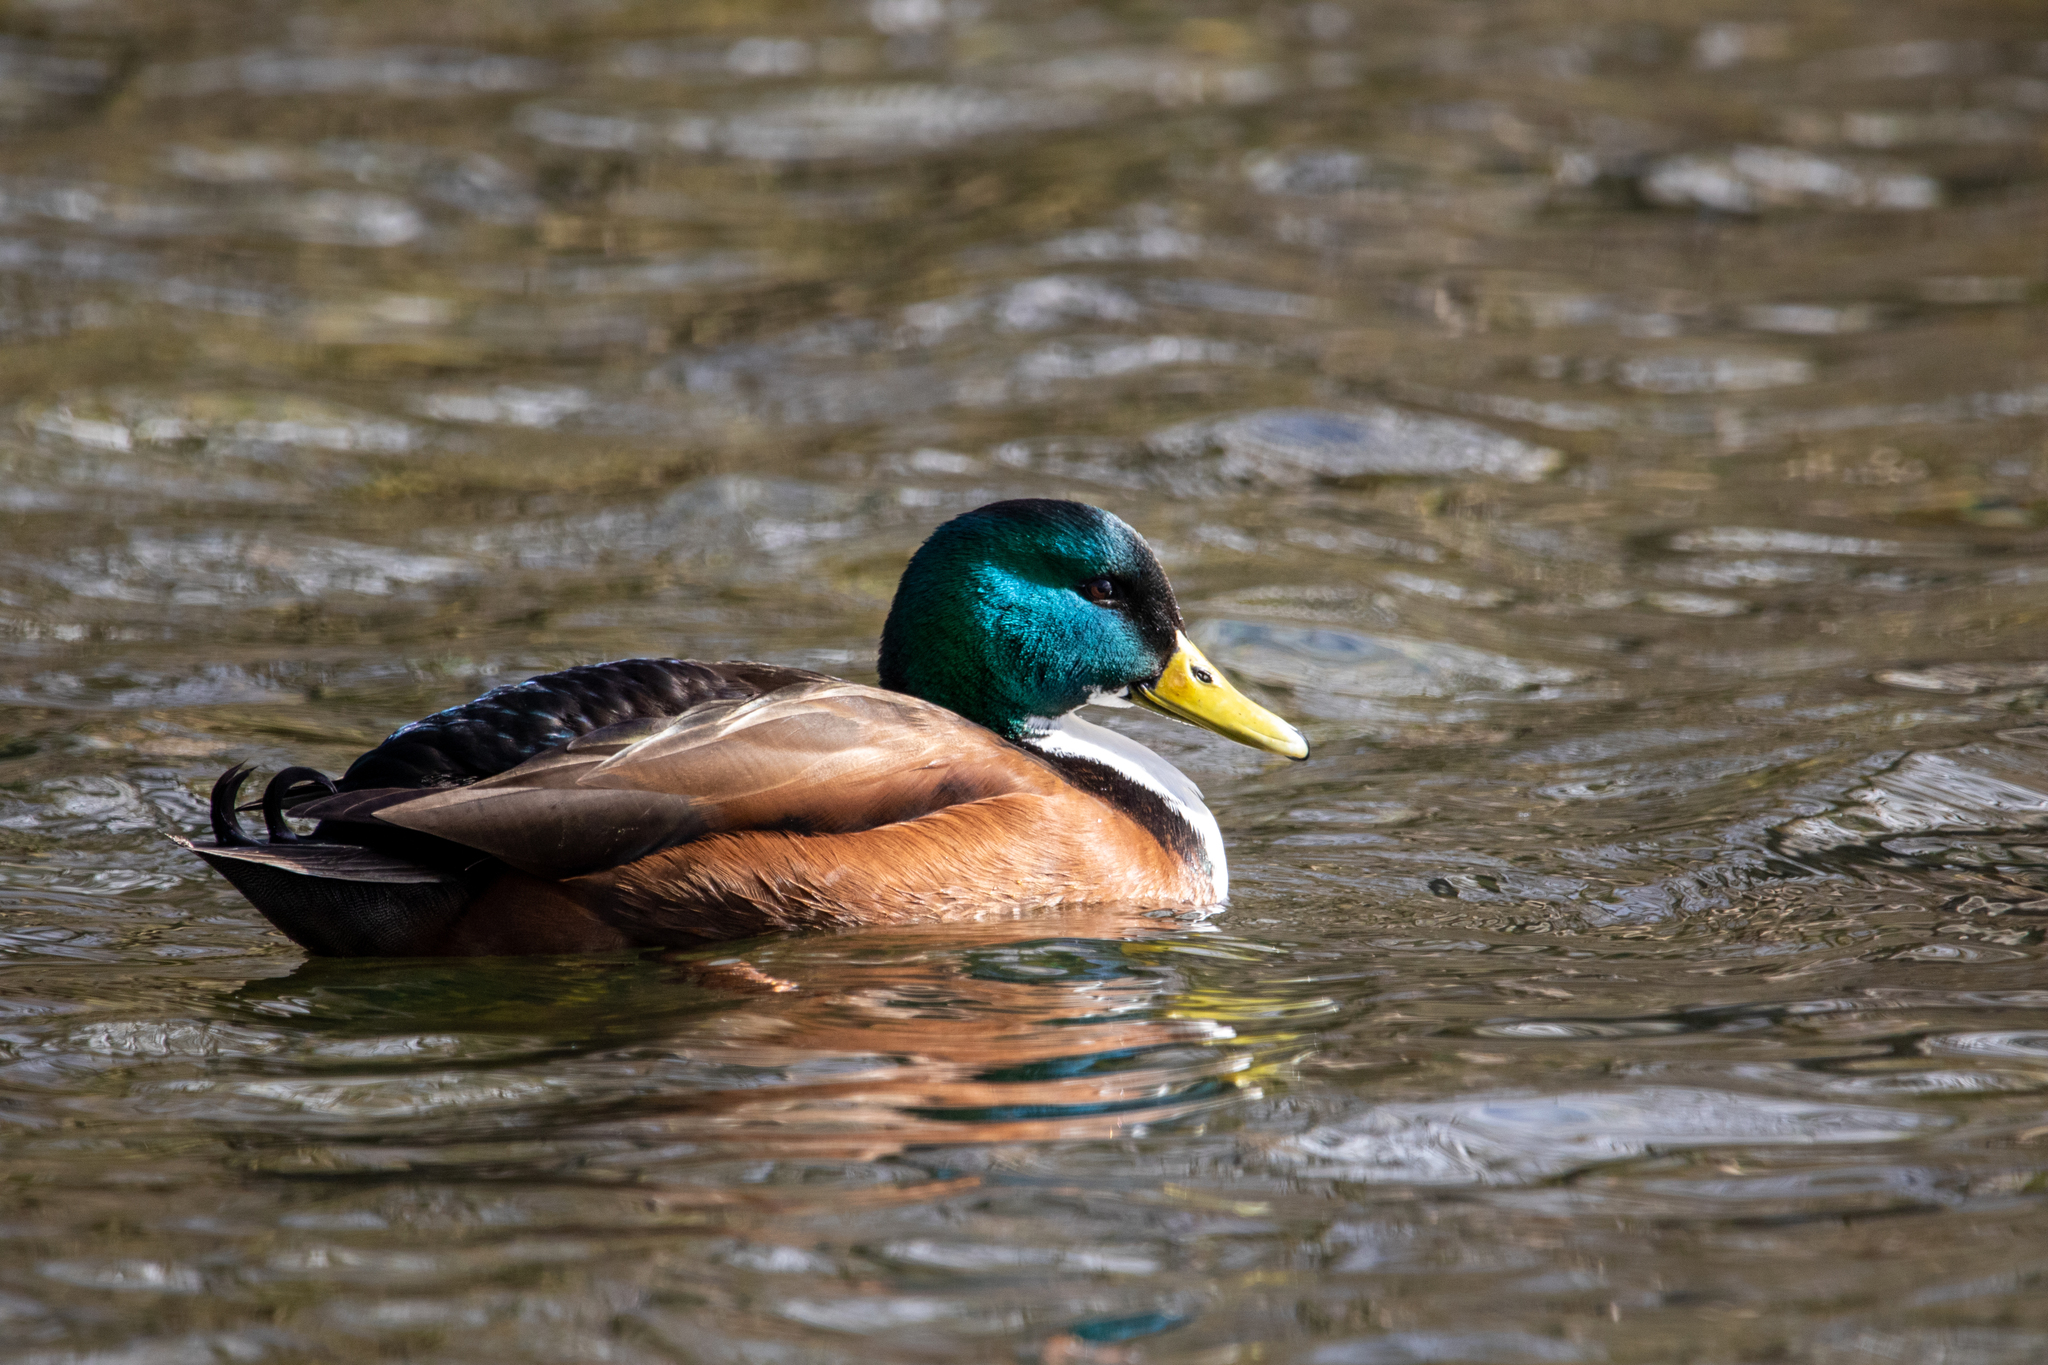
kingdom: Animalia
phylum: Chordata
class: Aves
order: Anseriformes
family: Anatidae
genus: Anas
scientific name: Anas platyrhynchos
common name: Mallard
